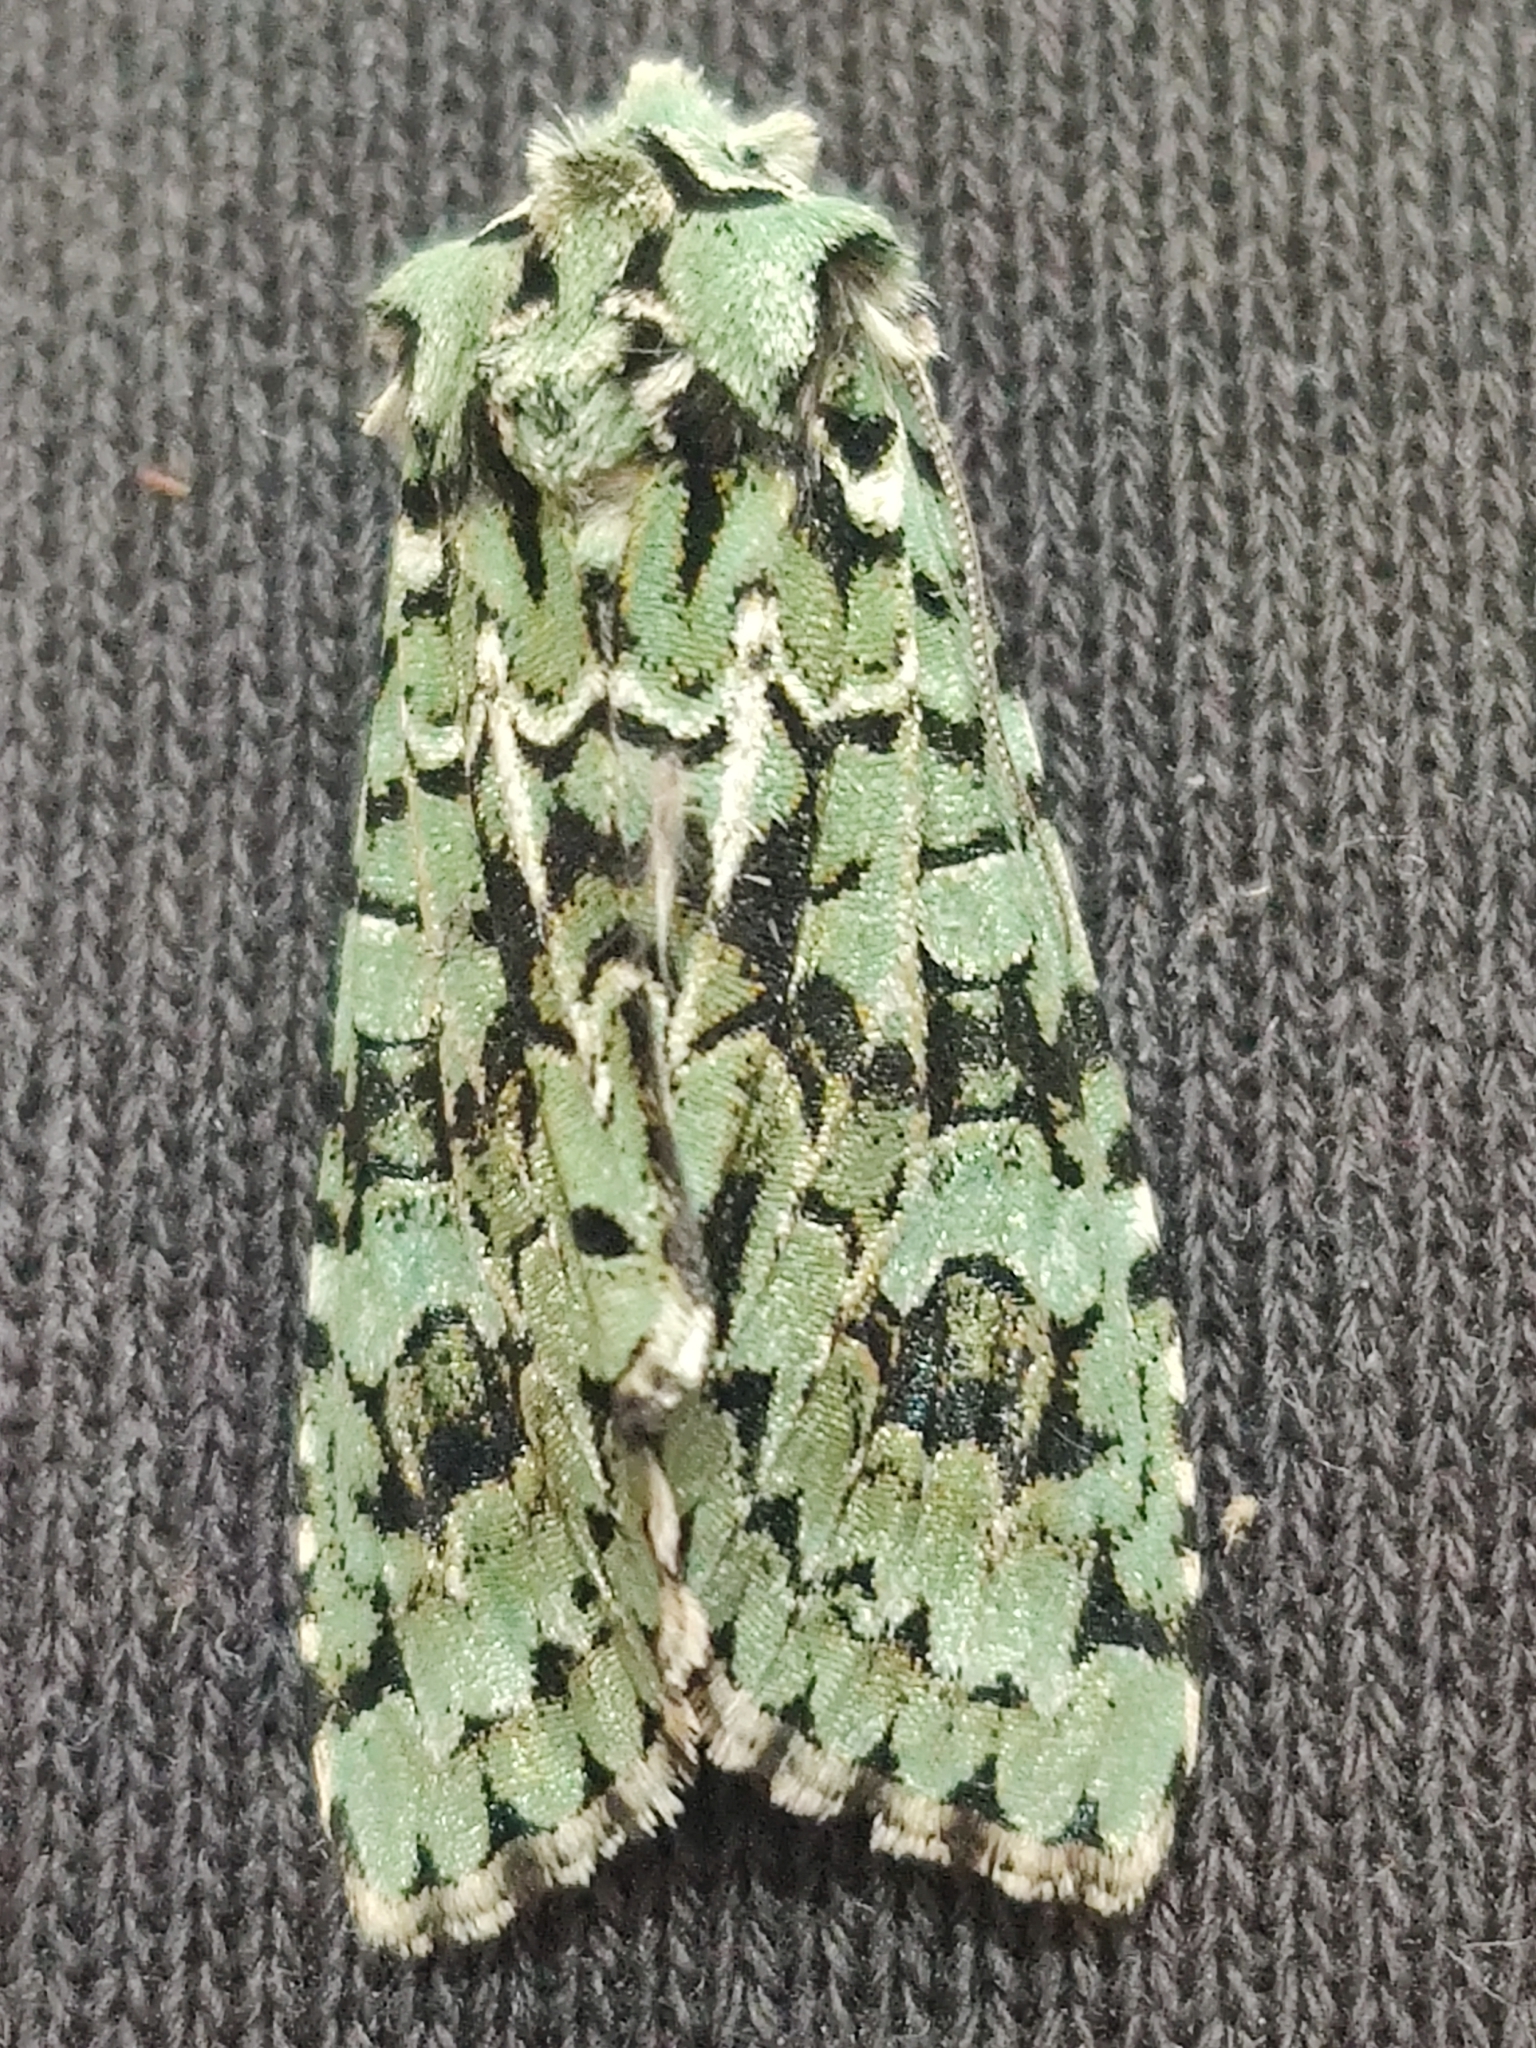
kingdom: Animalia
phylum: Arthropoda
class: Insecta
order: Lepidoptera
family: Noctuidae
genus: Griposia
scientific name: Griposia aprilina
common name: Merveille du jour
